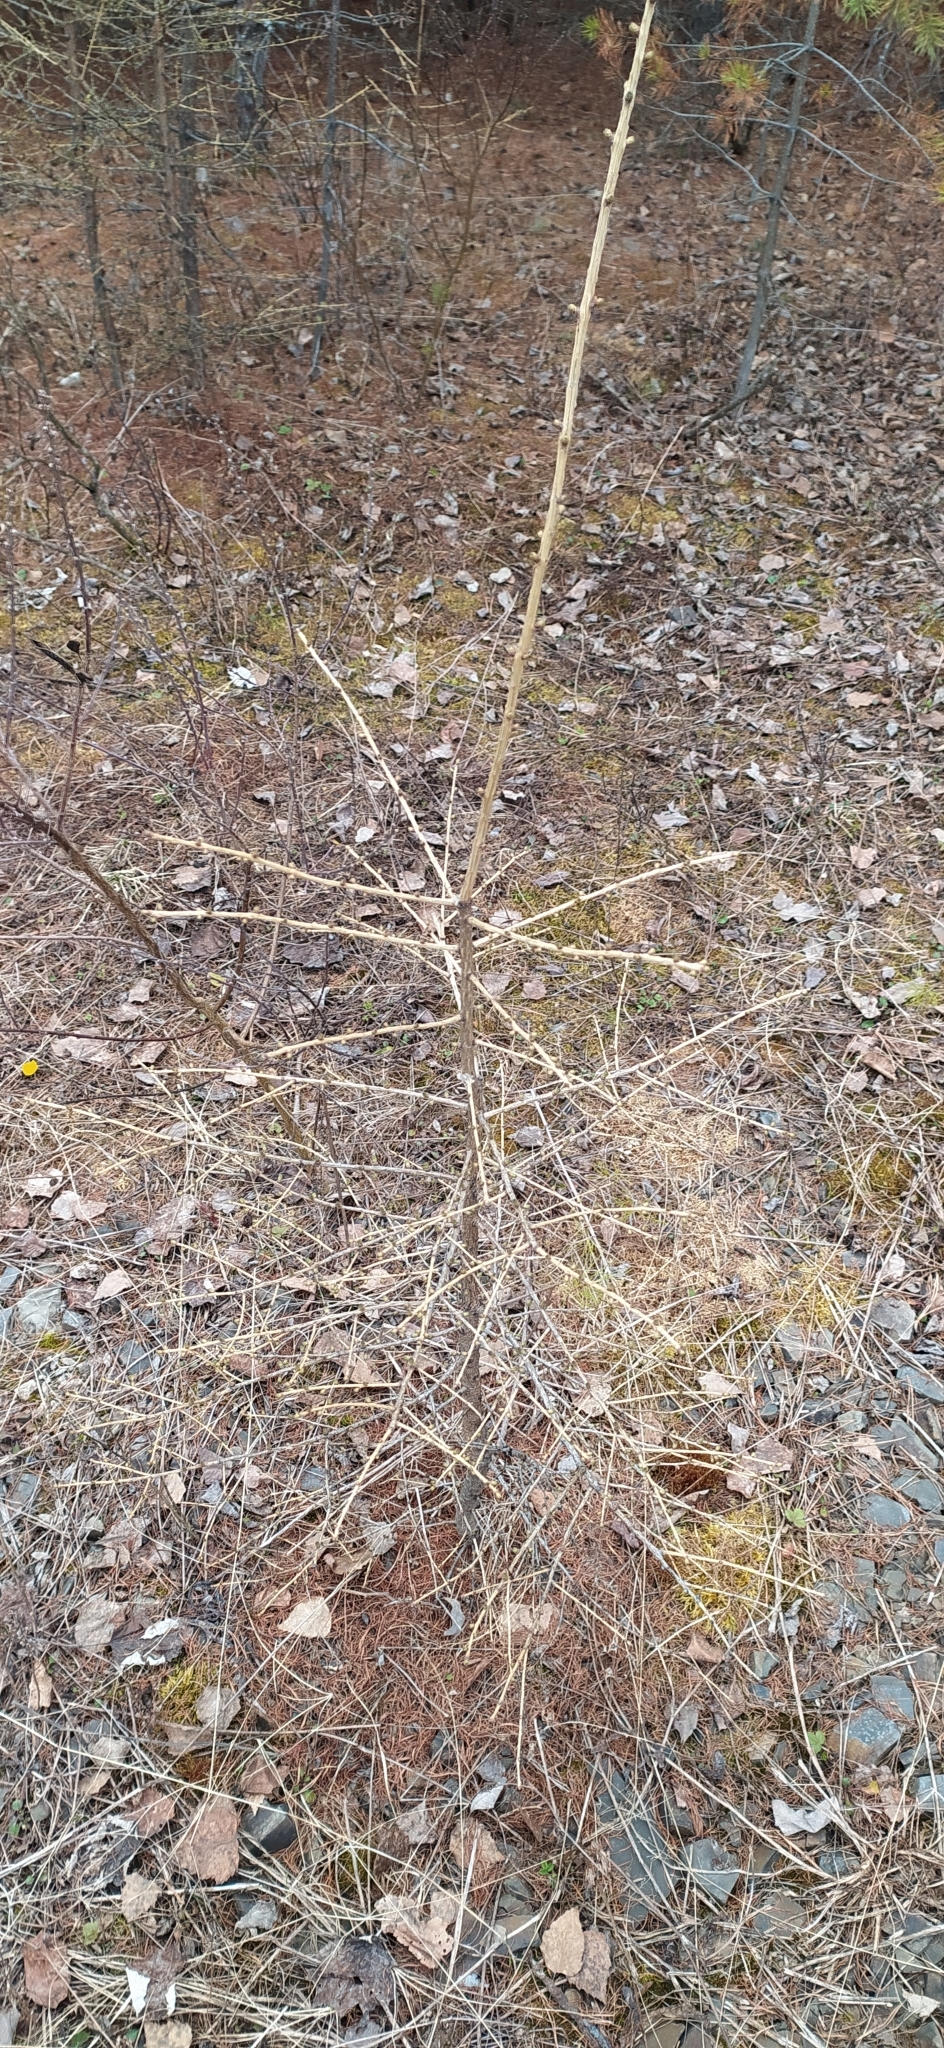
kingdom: Plantae
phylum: Tracheophyta
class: Pinopsida
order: Pinales
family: Pinaceae
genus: Larix
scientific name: Larix sibirica
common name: Siberian larch
